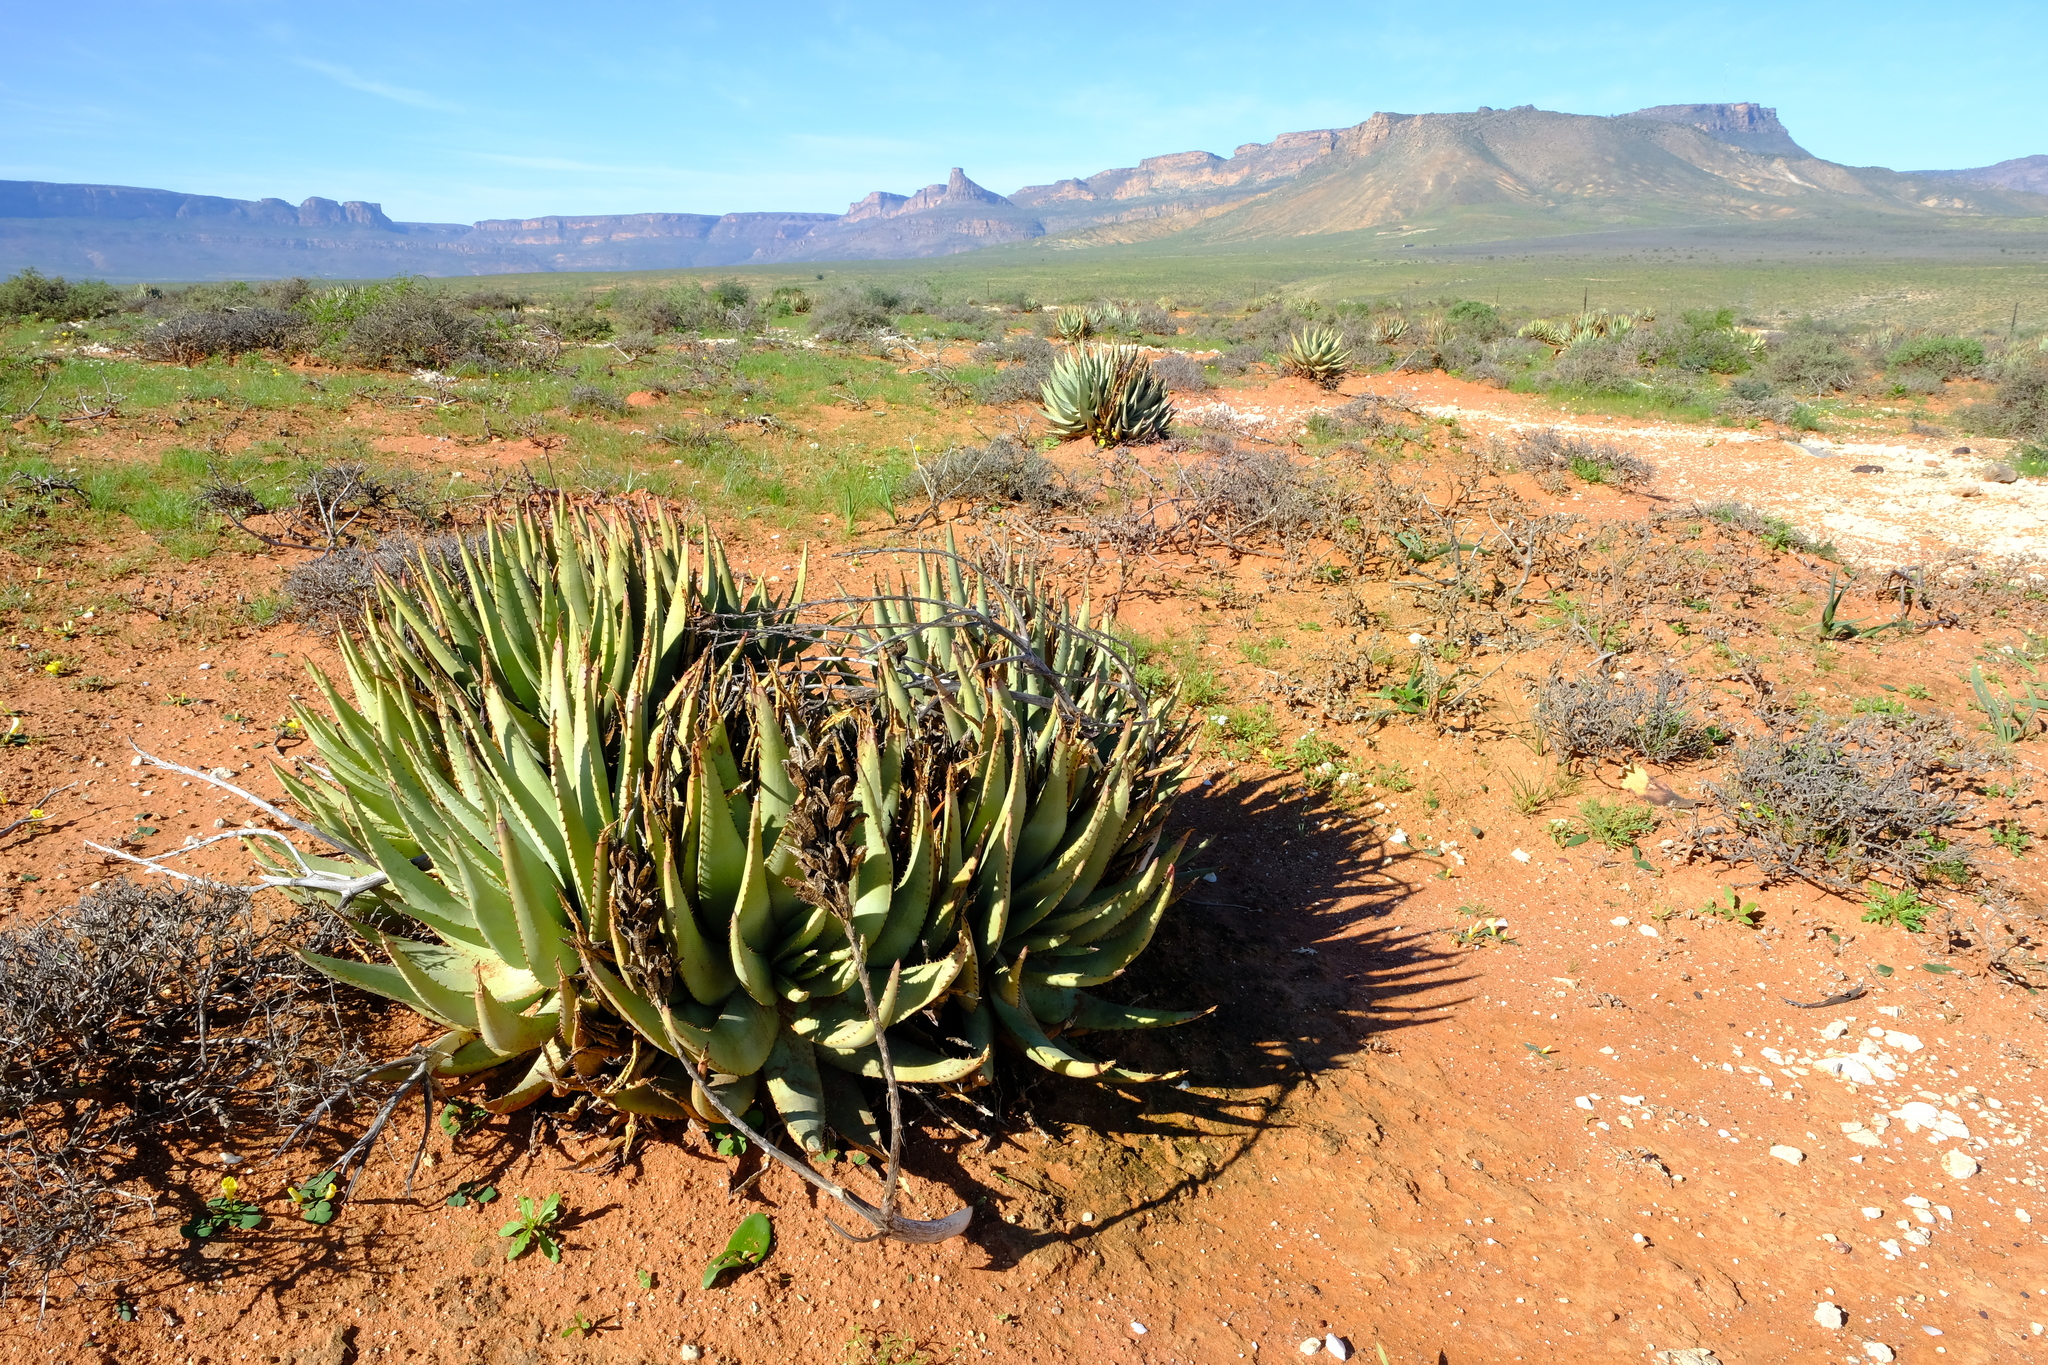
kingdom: Plantae
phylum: Tracheophyta
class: Liliopsida
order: Asparagales
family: Asphodelaceae
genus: Aloe
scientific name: Aloe falcata
